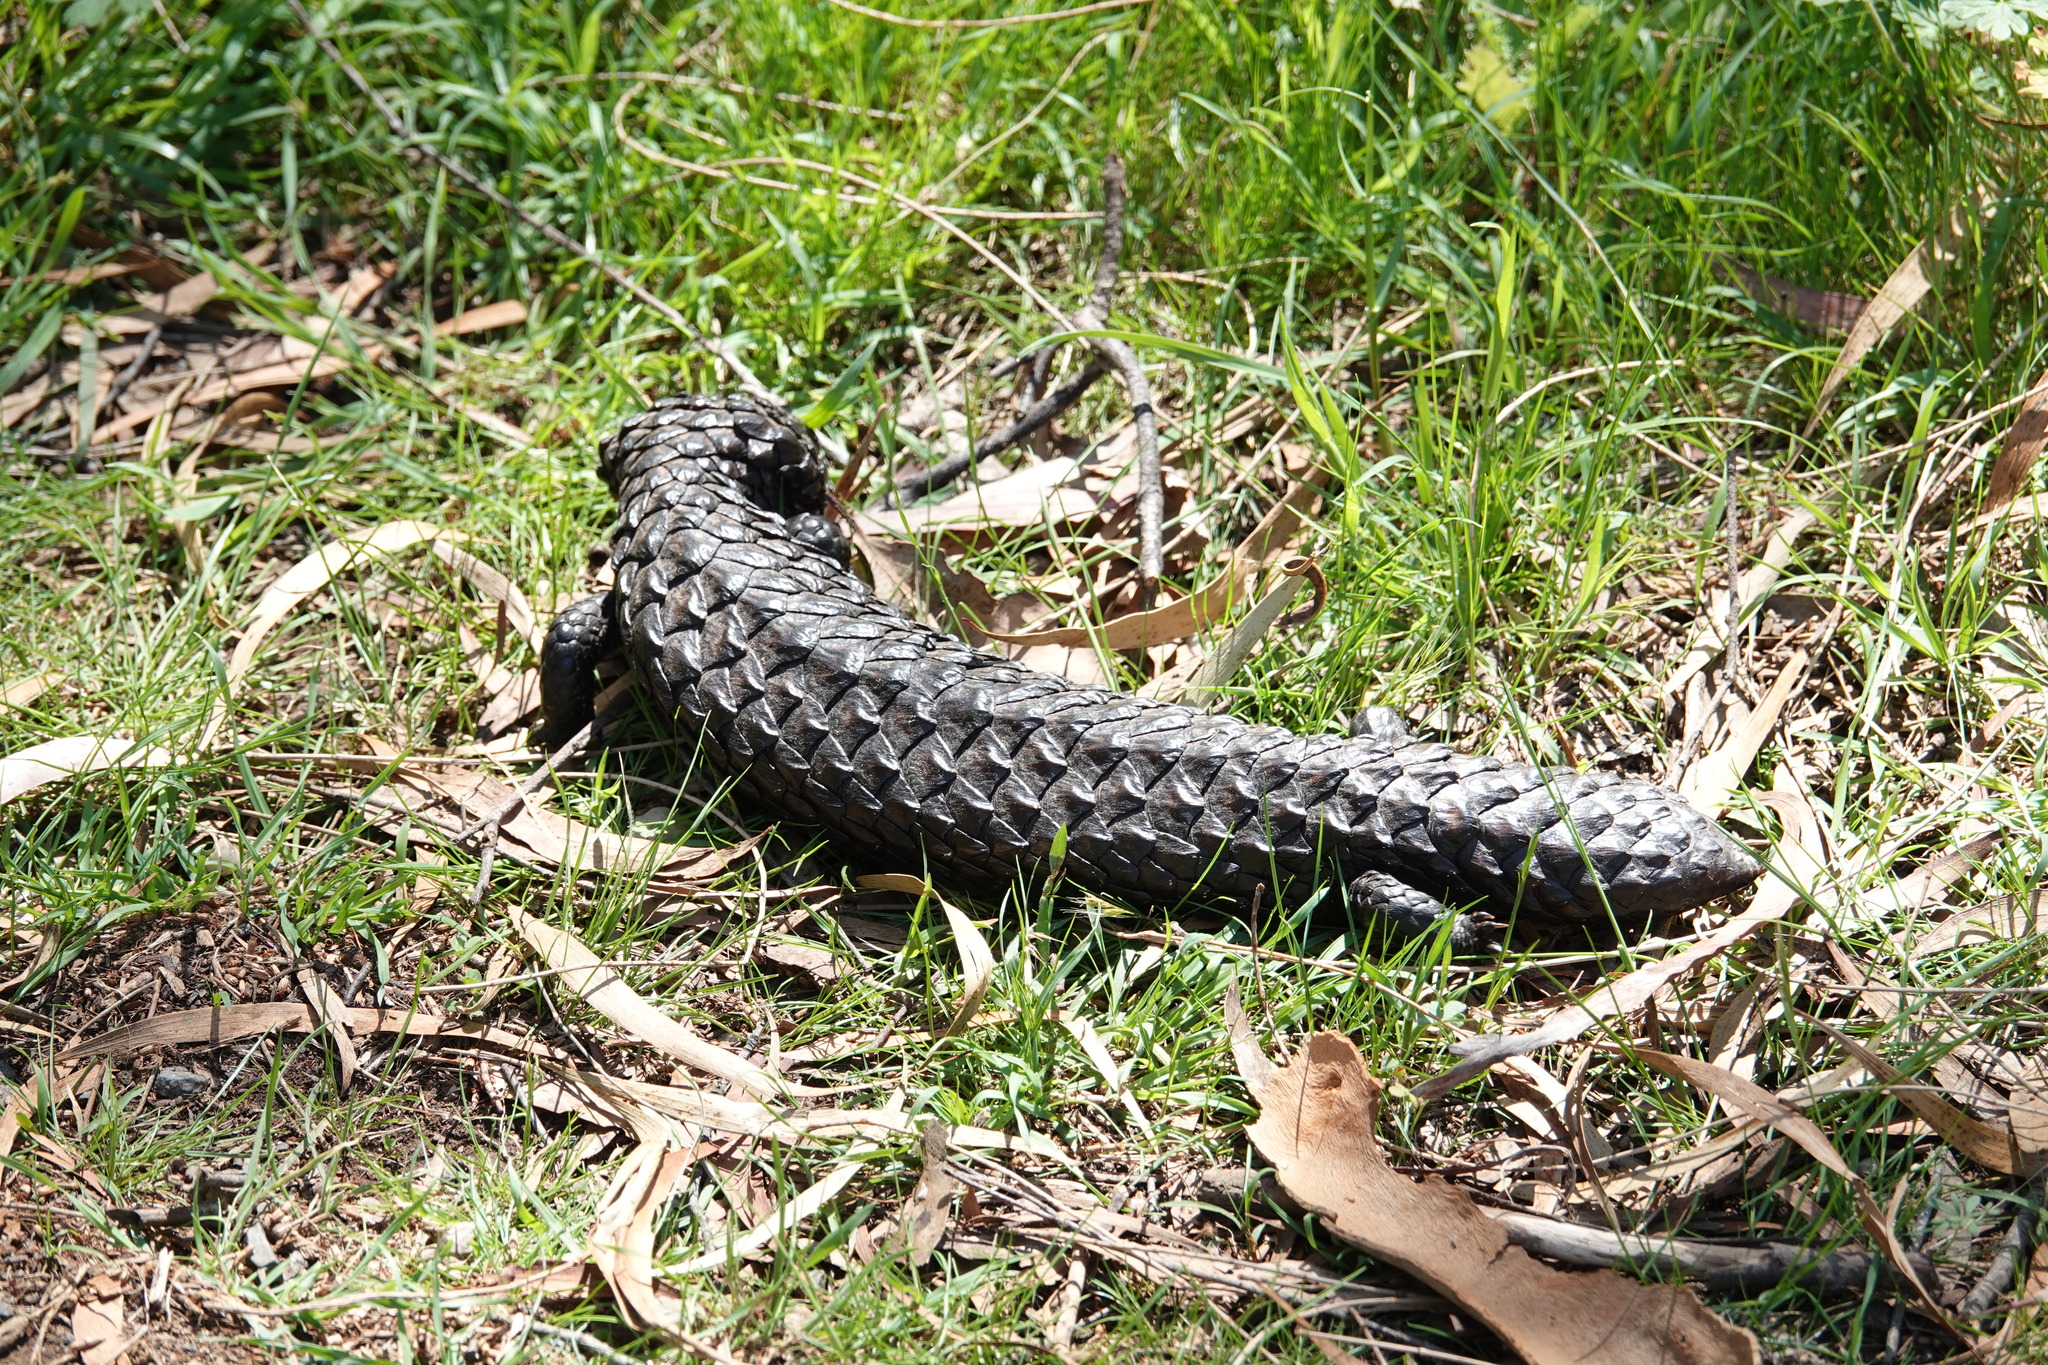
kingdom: Animalia
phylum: Chordata
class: Squamata
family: Scincidae
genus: Tiliqua
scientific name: Tiliqua rugosa
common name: Pinecone lizard
